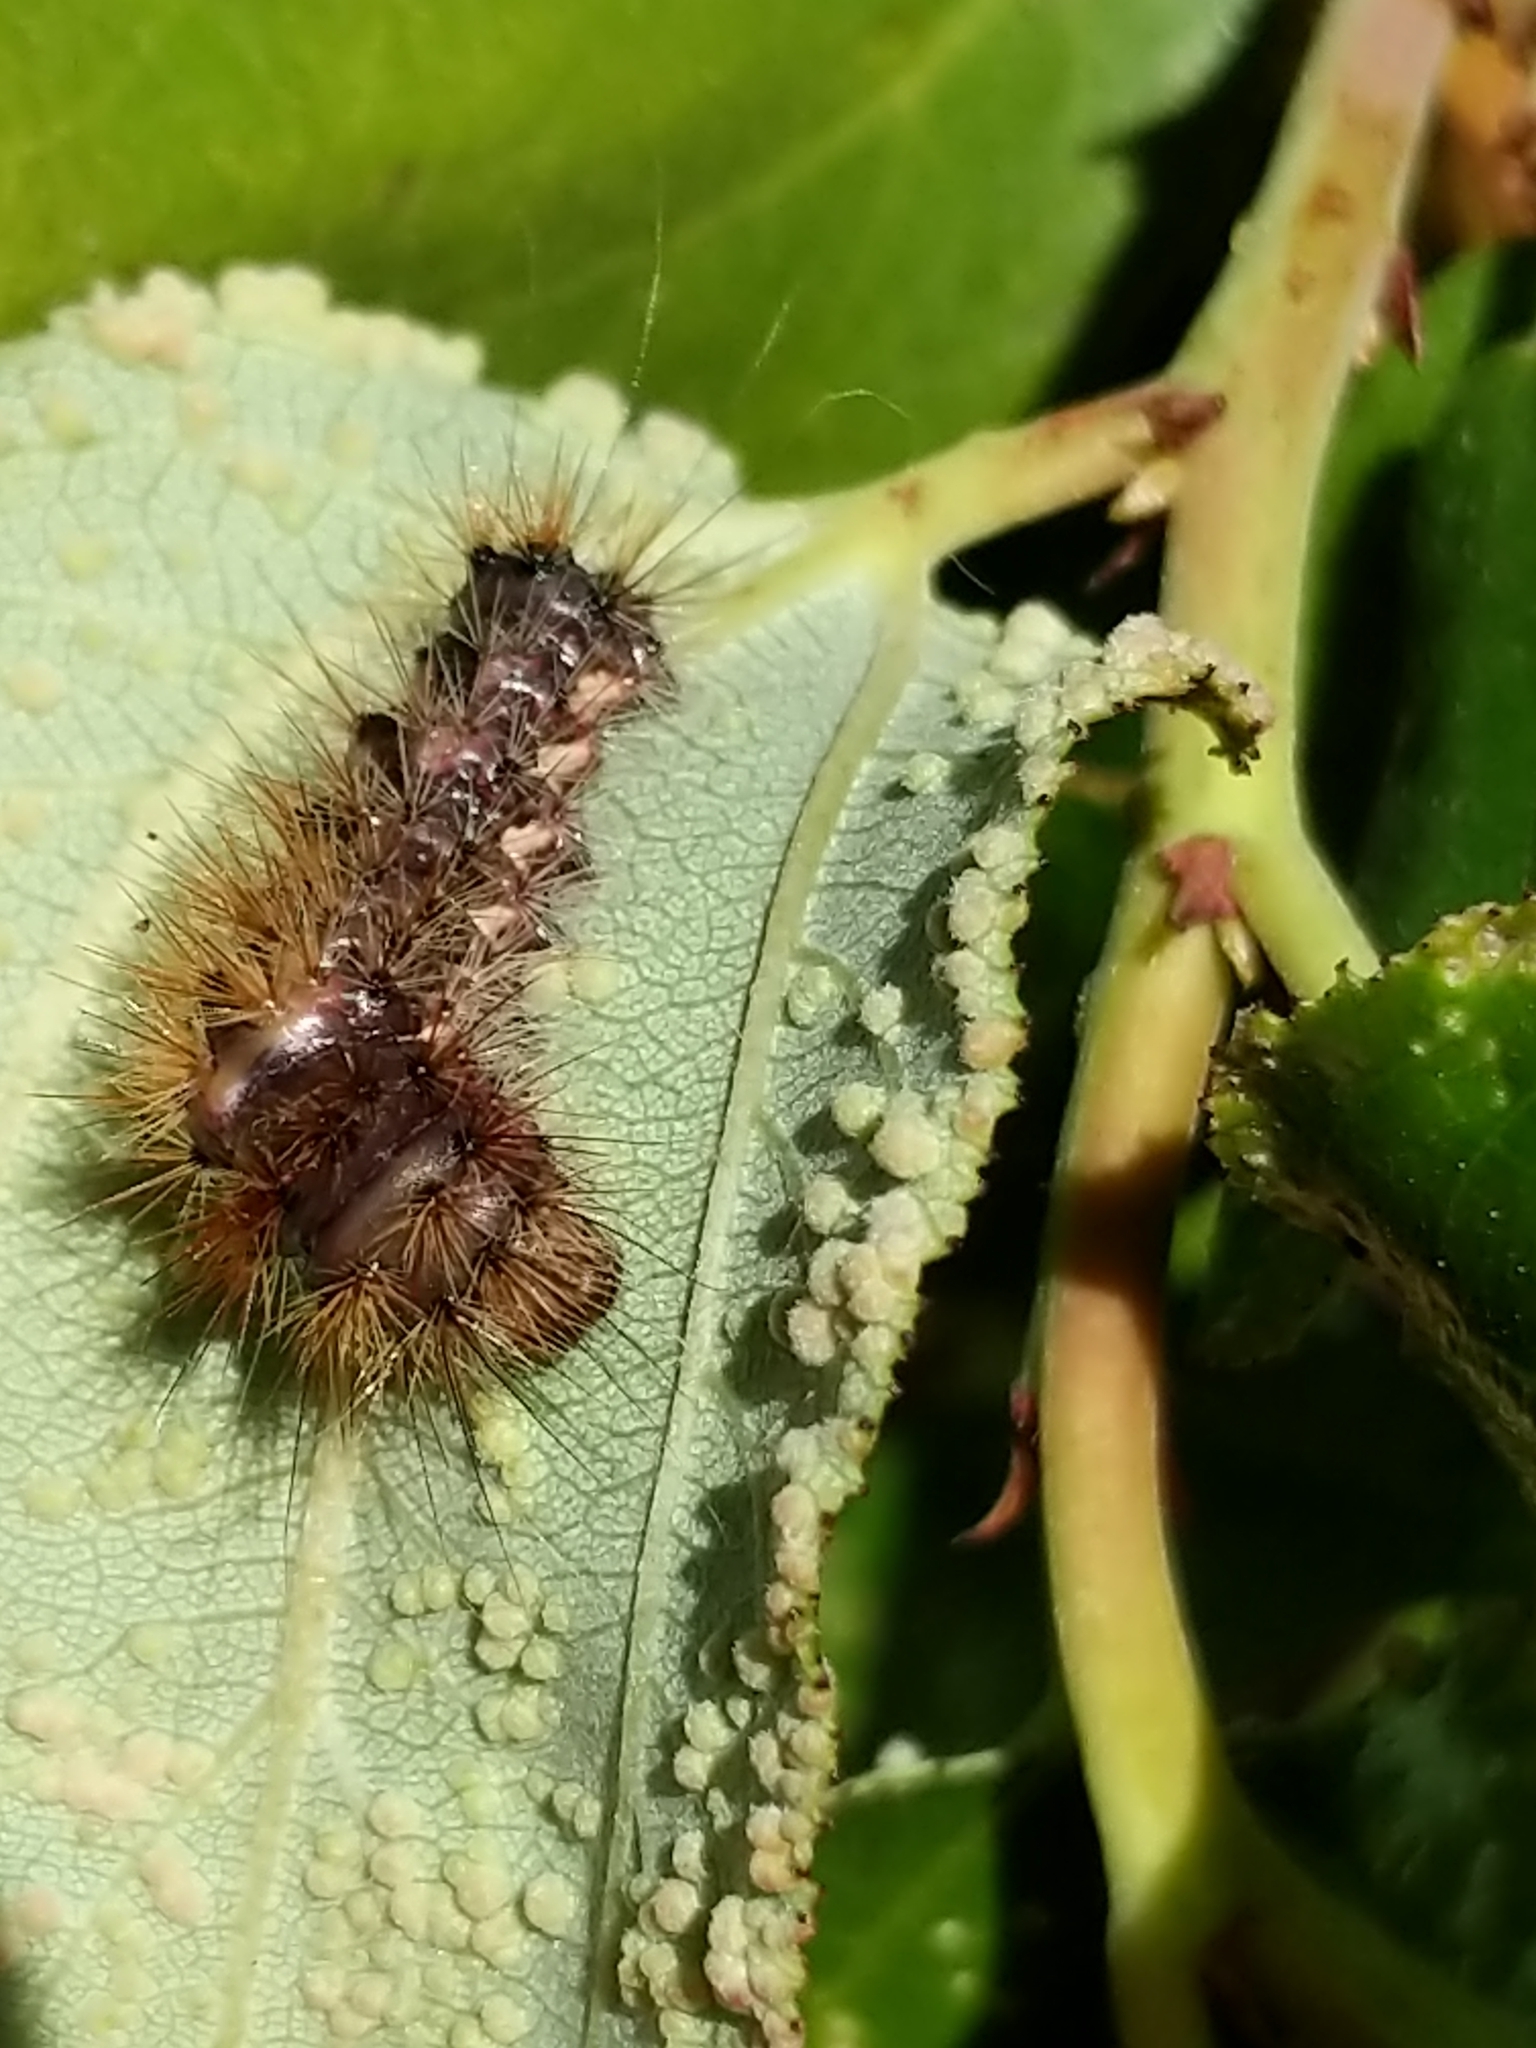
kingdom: Animalia
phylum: Arthropoda
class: Insecta
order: Lepidoptera
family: Noctuidae
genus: Acronicta
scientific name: Acronicta impleta
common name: Powdered dagger
